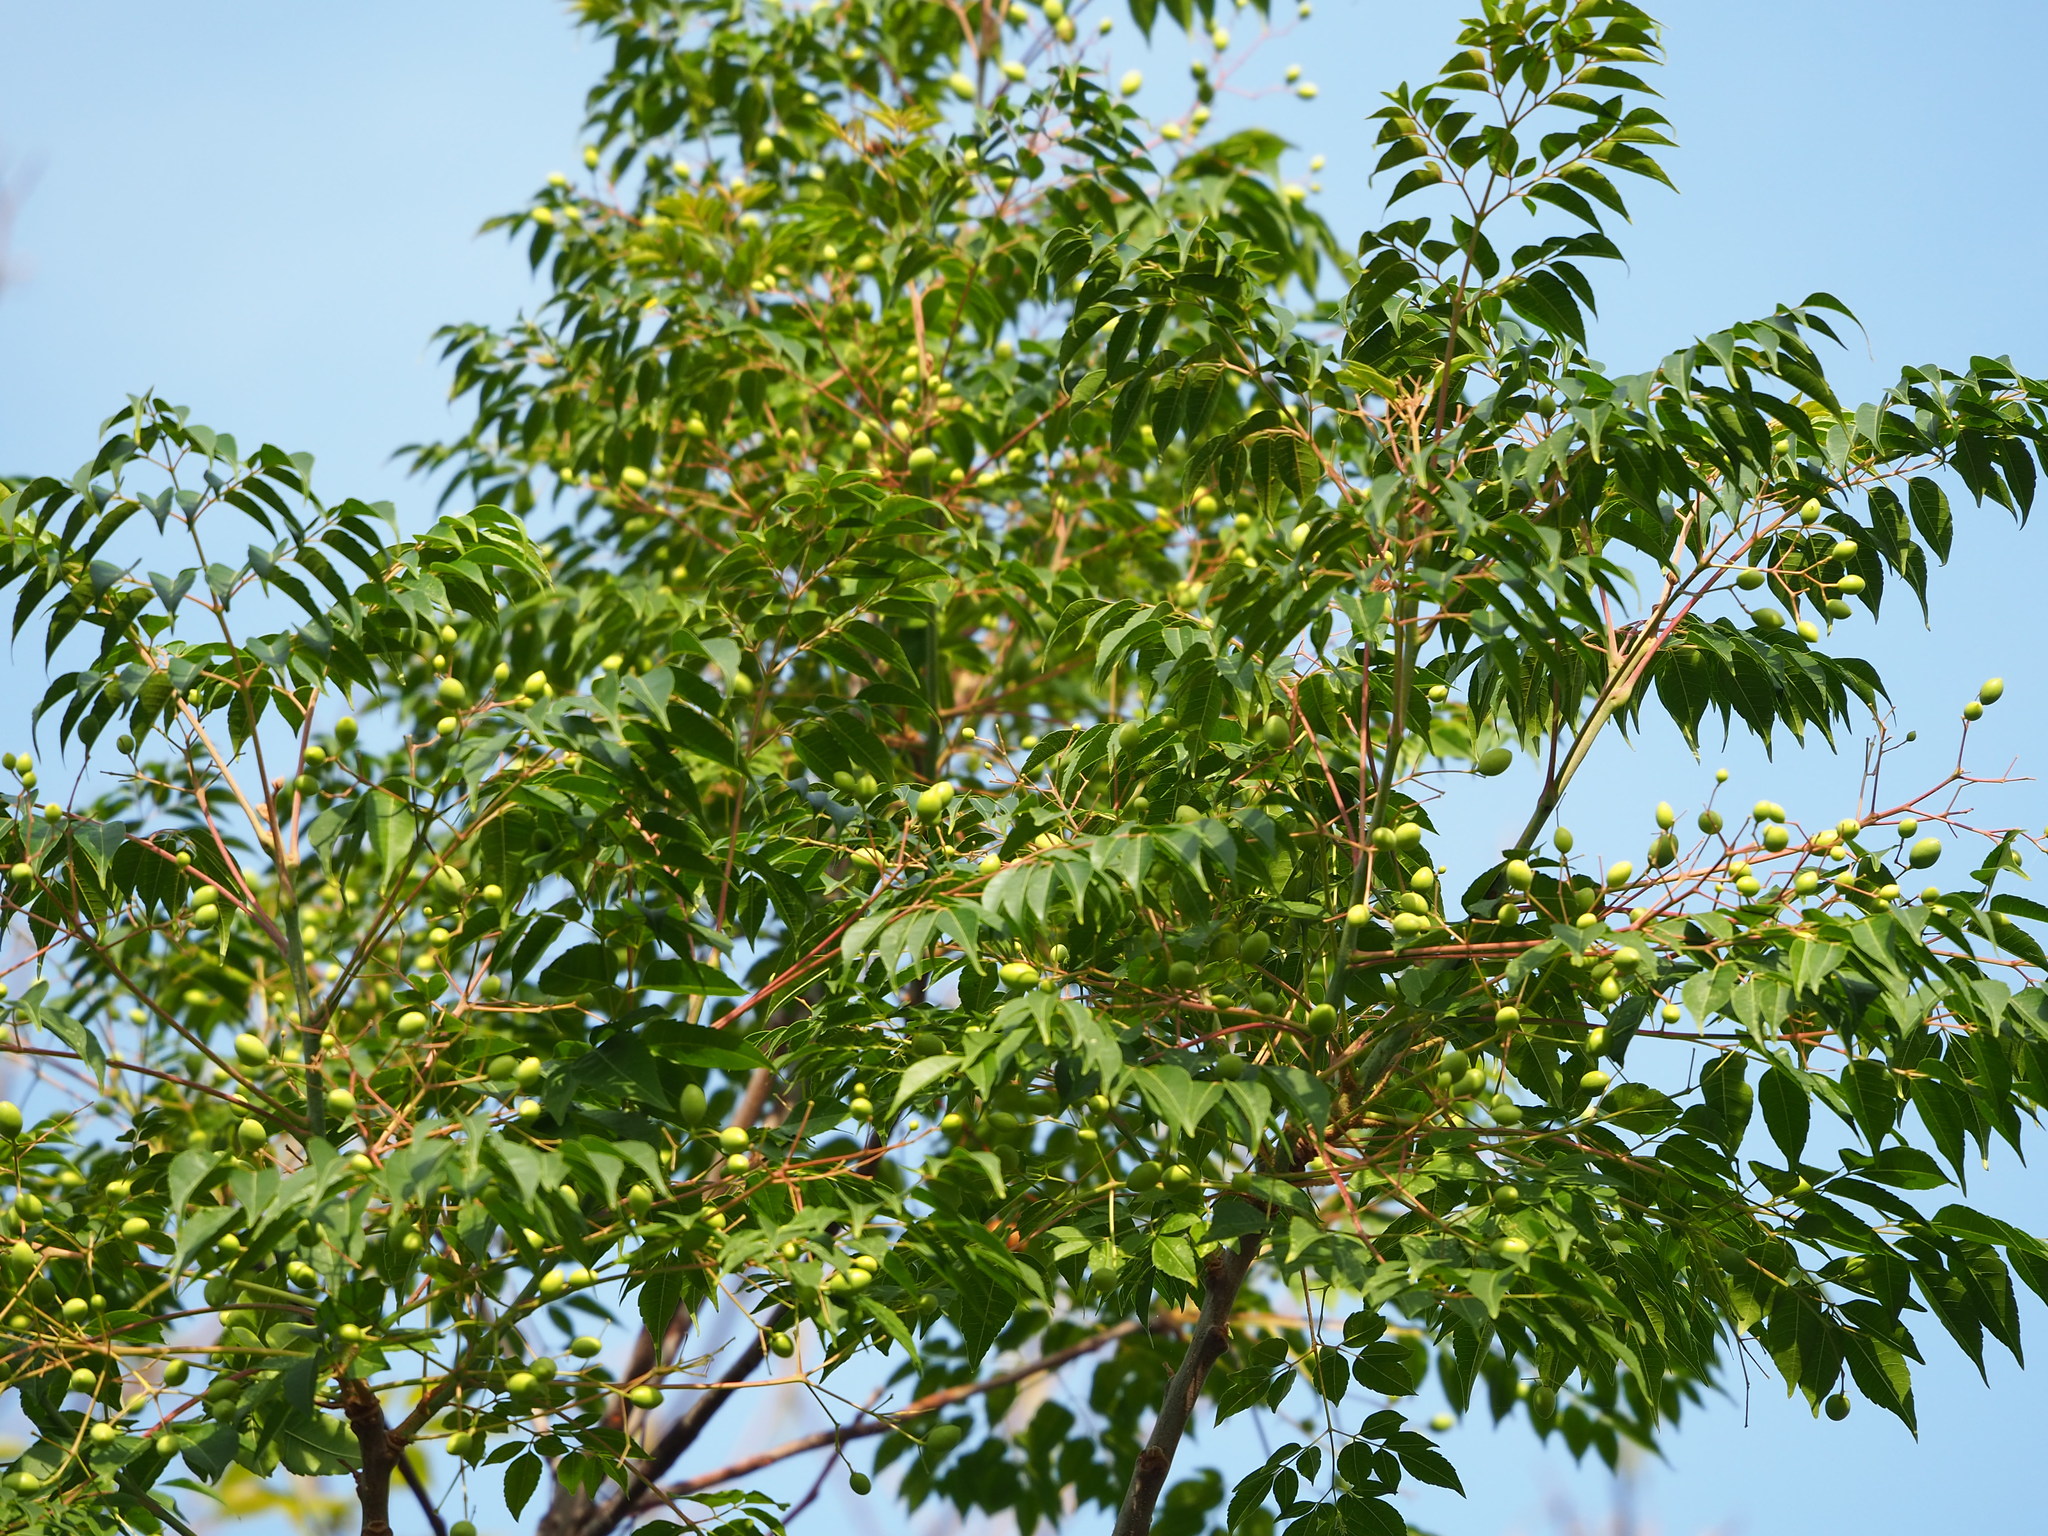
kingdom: Plantae
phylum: Tracheophyta
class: Magnoliopsida
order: Sapindales
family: Meliaceae
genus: Melia
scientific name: Melia azedarach
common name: Chinaberrytree
